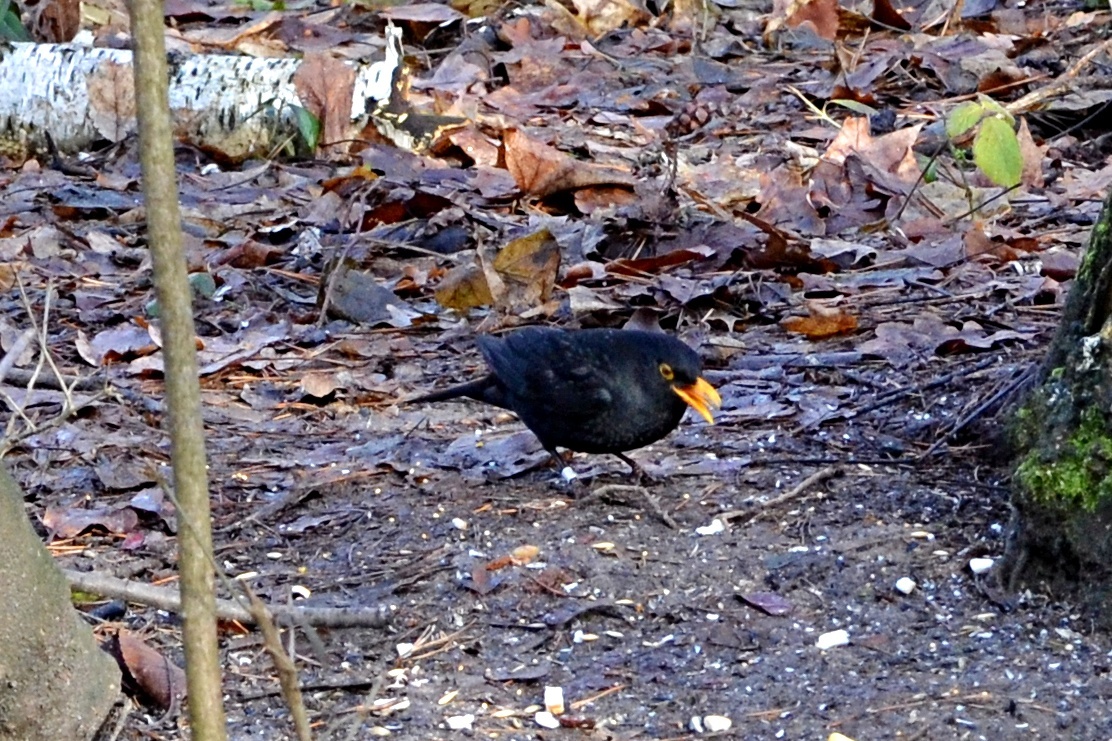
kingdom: Animalia
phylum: Chordata
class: Aves
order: Passeriformes
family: Turdidae
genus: Turdus
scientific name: Turdus merula
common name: Common blackbird
